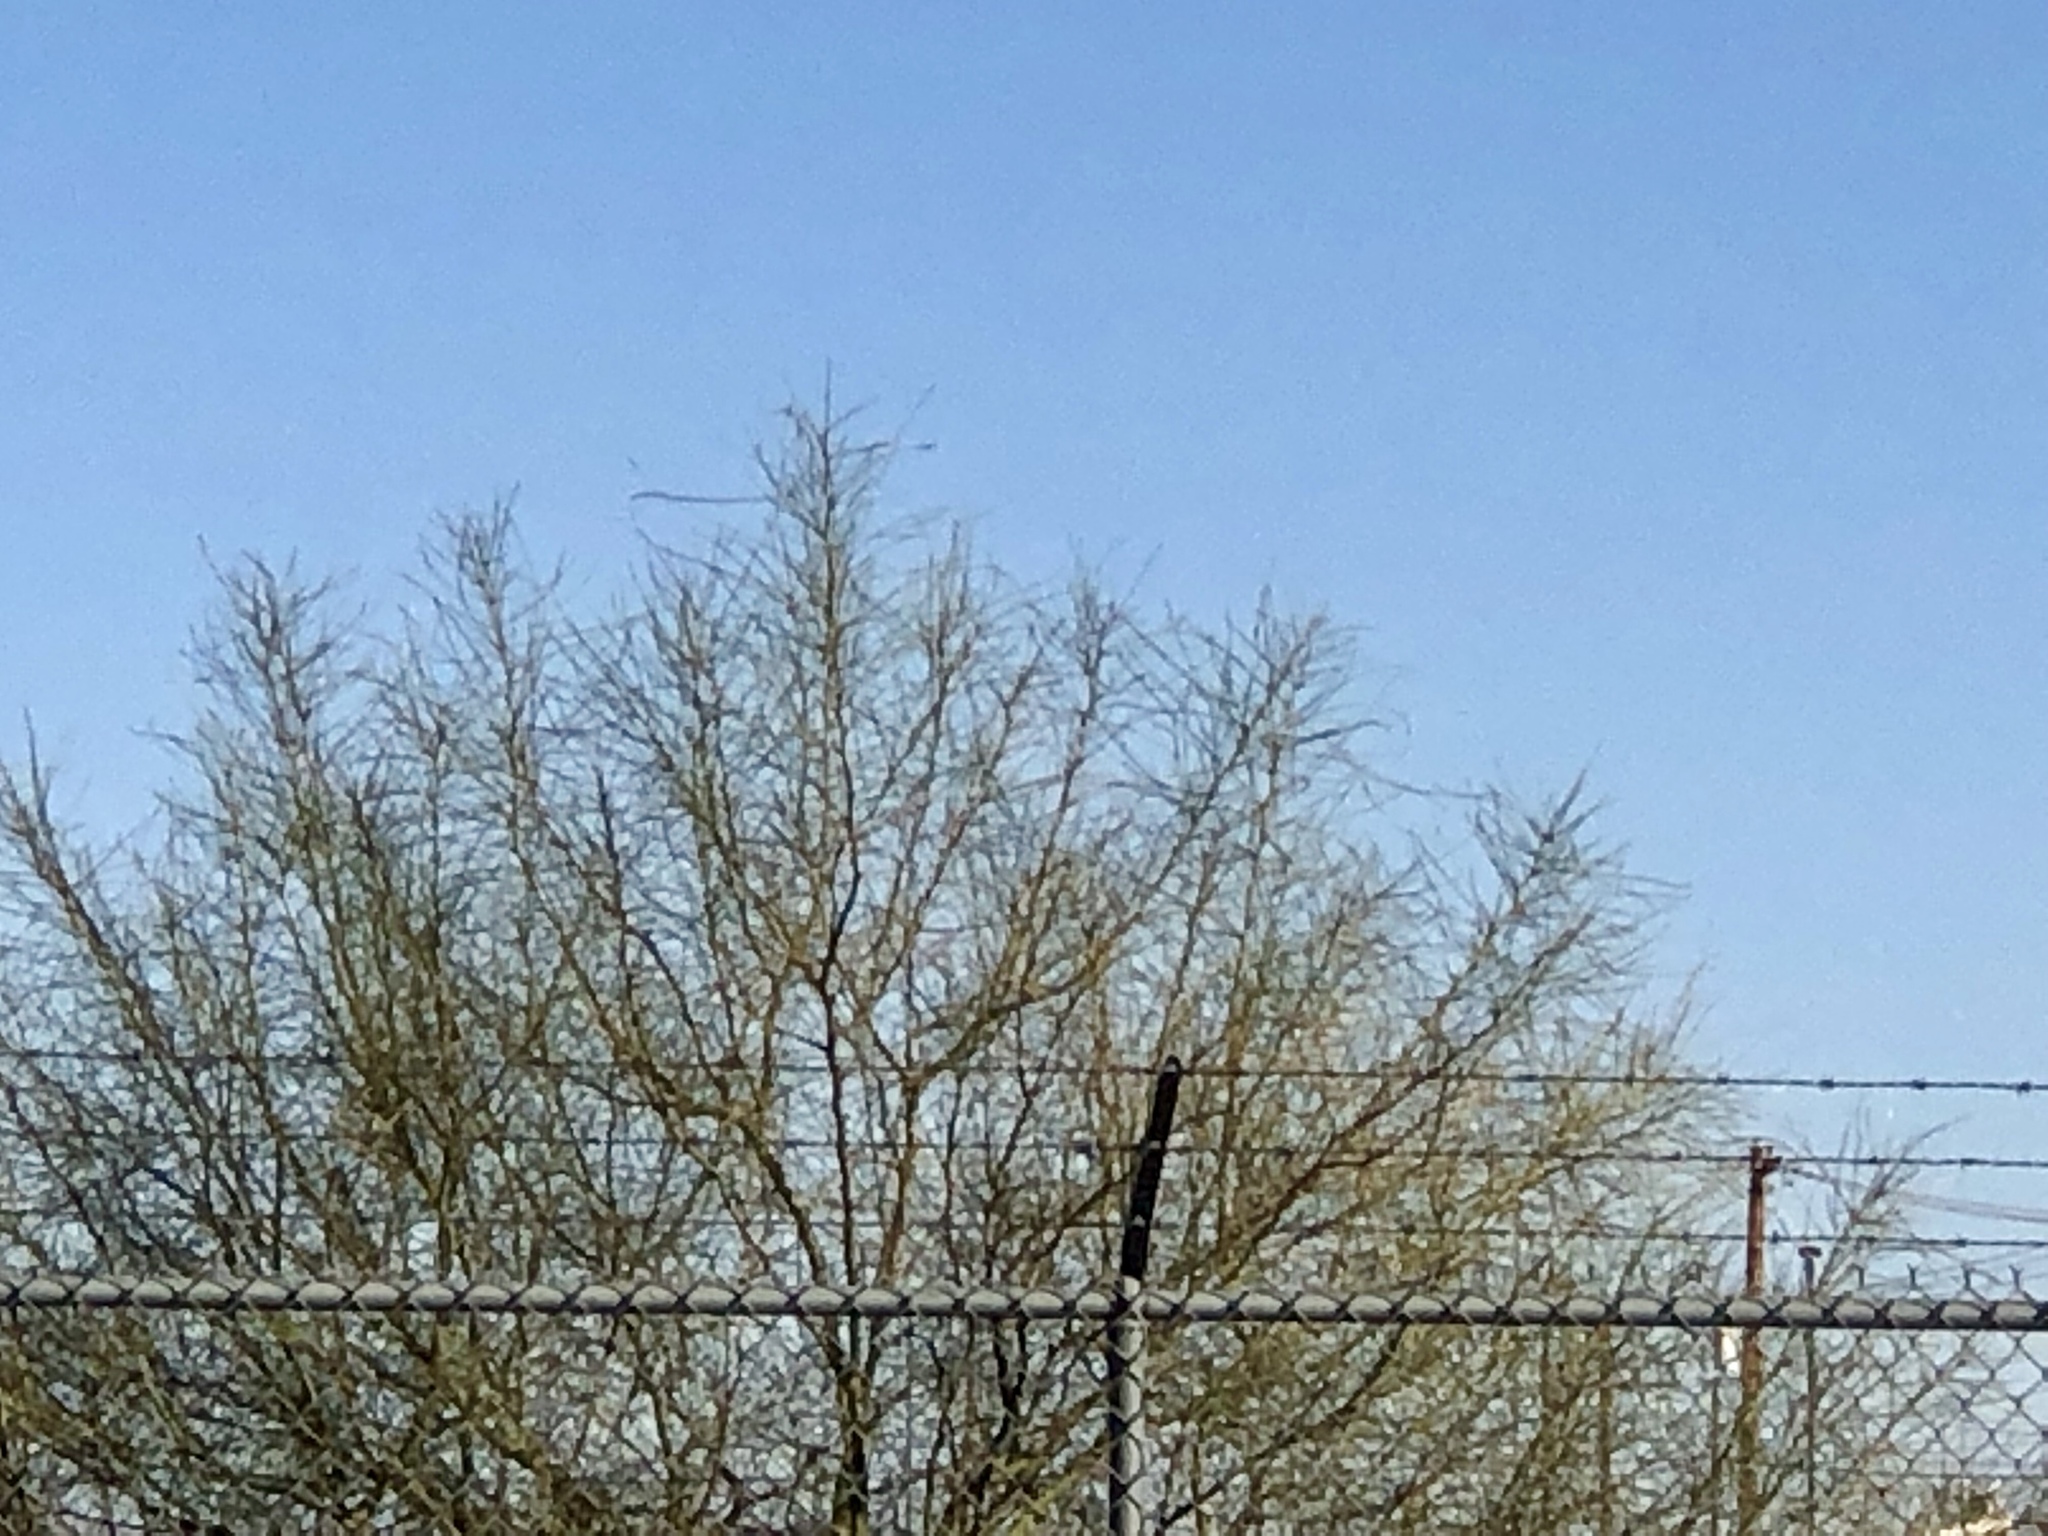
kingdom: Plantae
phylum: Tracheophyta
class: Magnoliopsida
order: Fabales
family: Fabaceae
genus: Parkinsonia
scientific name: Parkinsonia aculeata
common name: Jerusalem thorn
